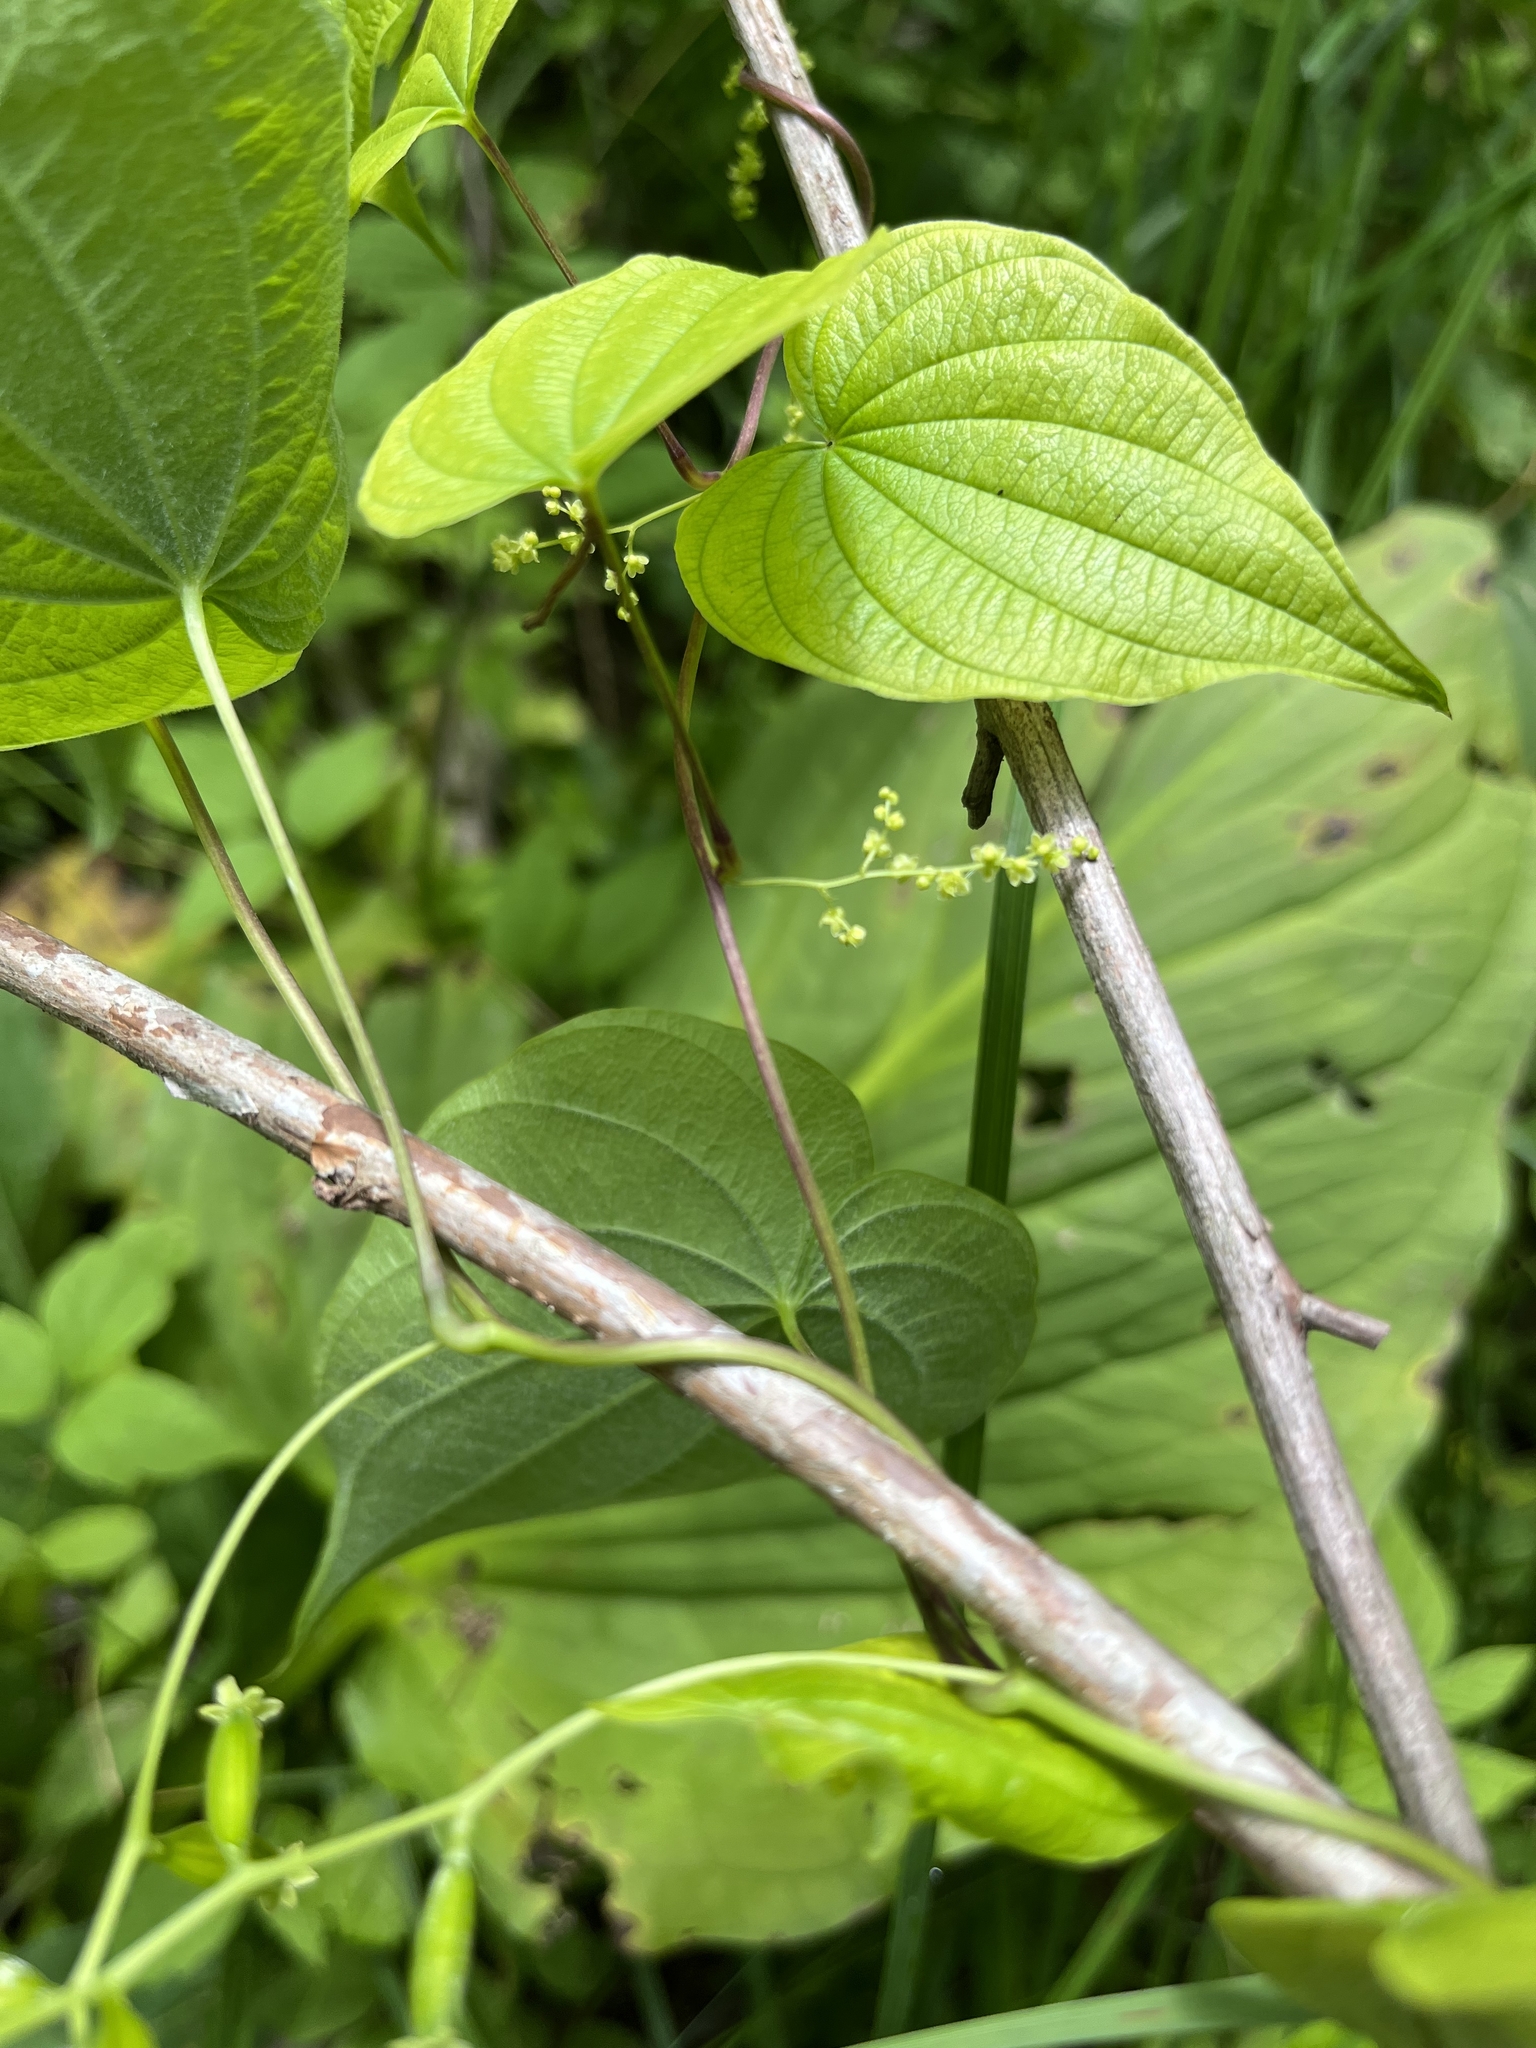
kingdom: Plantae
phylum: Tracheophyta
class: Liliopsida
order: Dioscoreales
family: Dioscoreaceae
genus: Dioscorea
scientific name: Dioscorea villosa
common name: Wild yam
